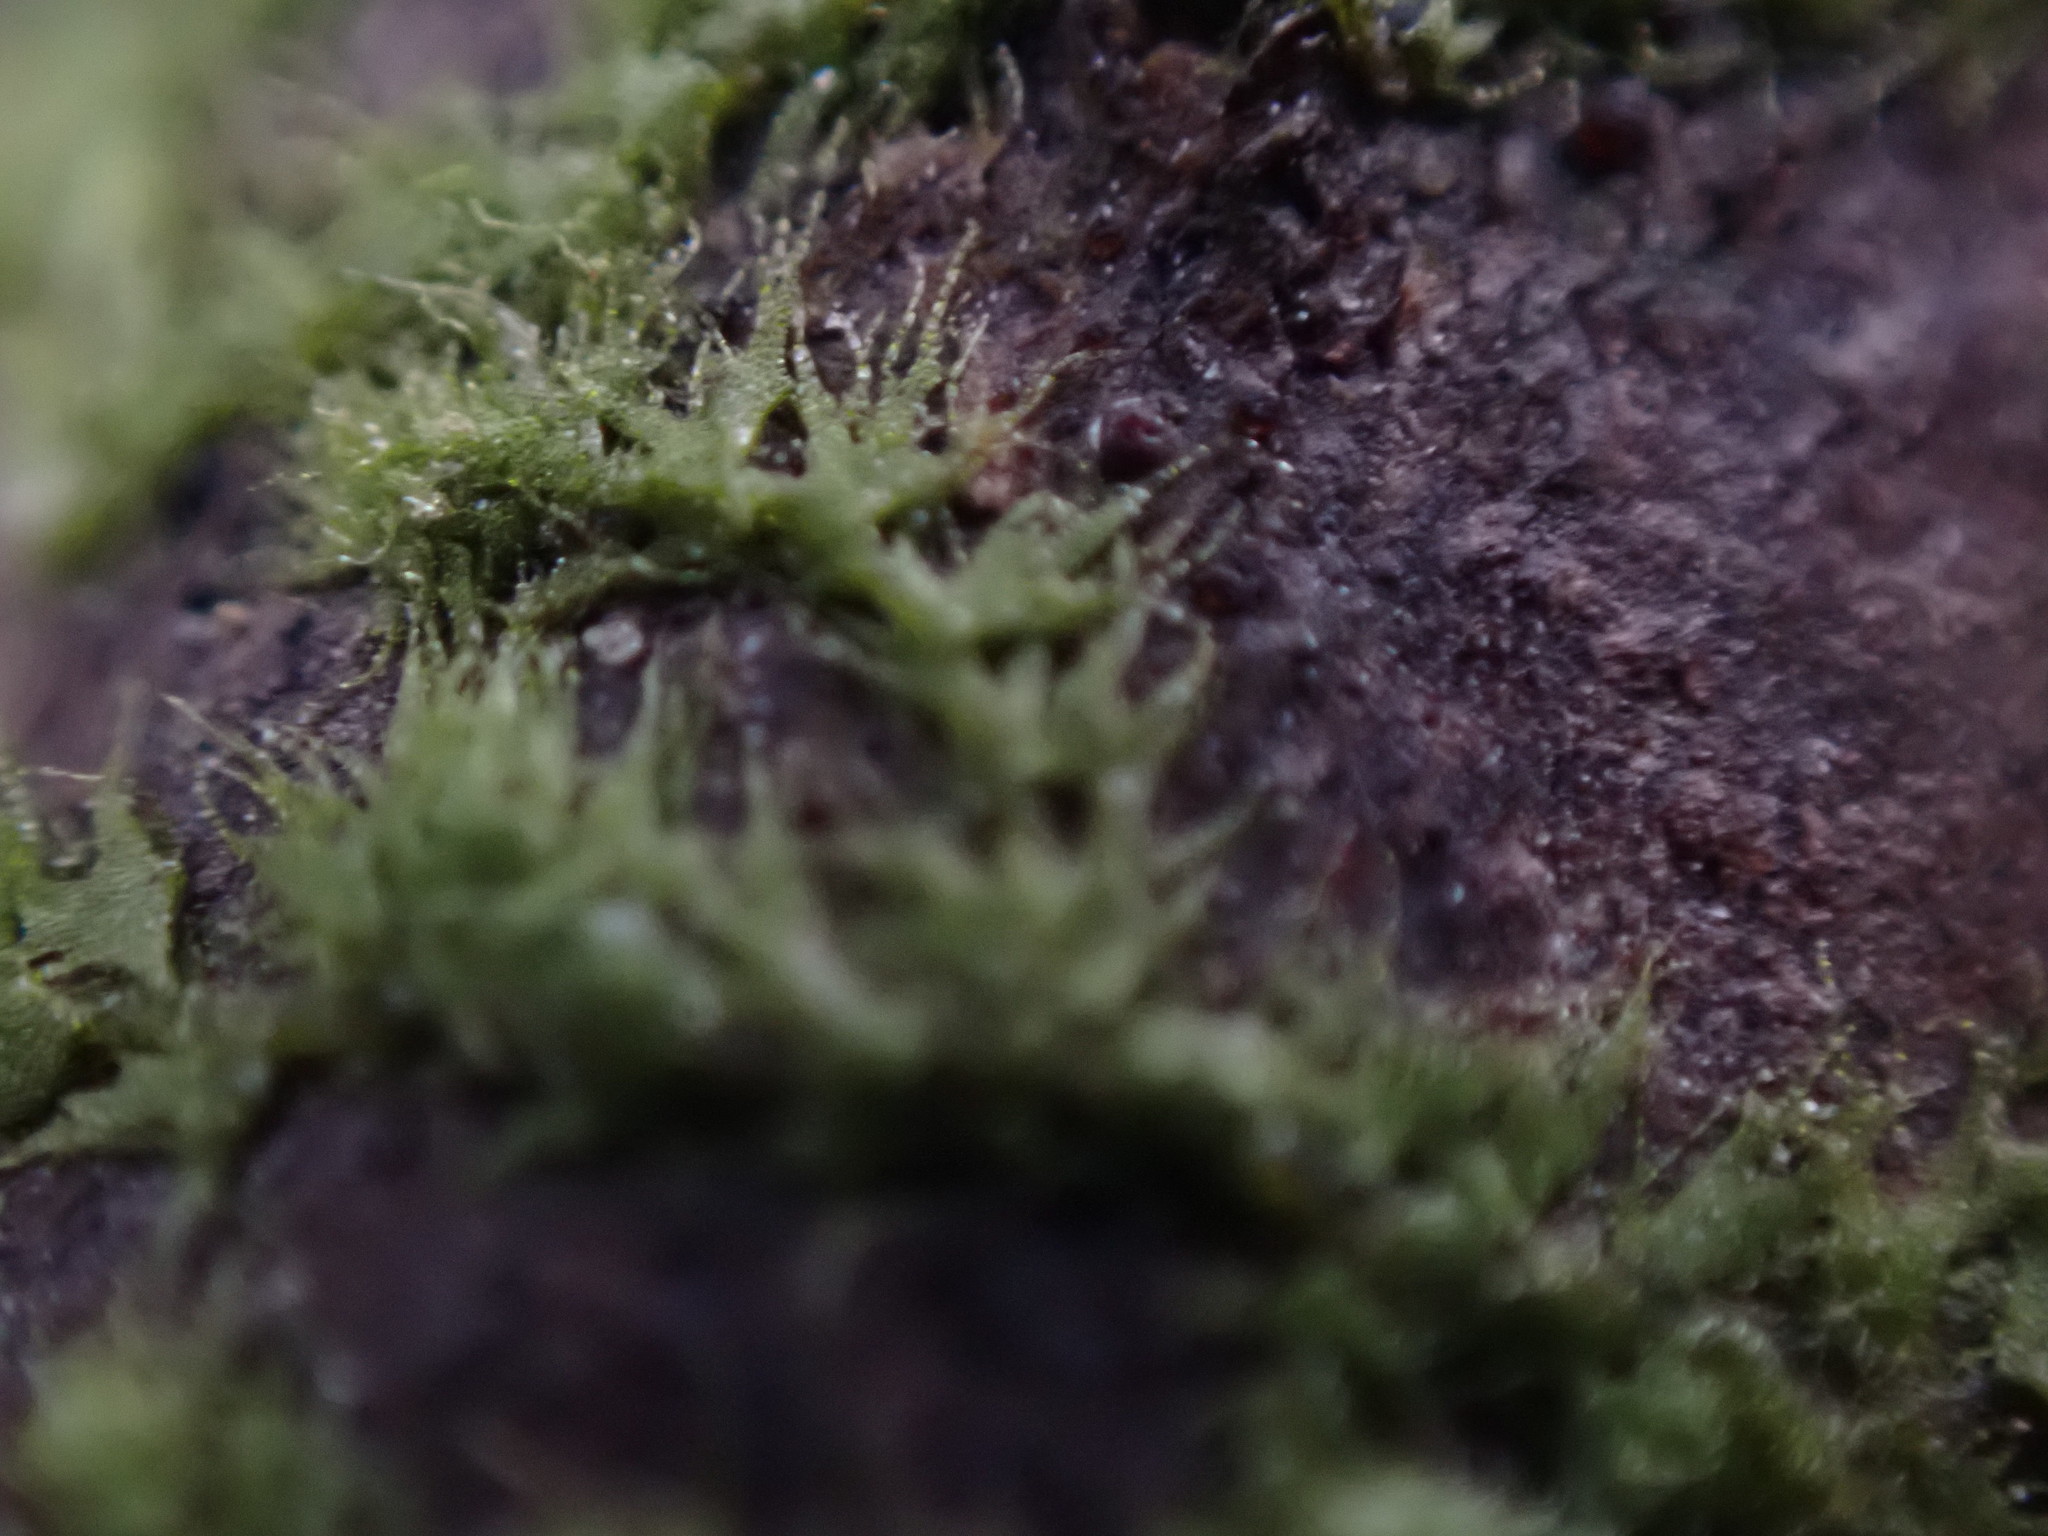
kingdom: Plantae
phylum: Marchantiophyta
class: Jungermanniopsida
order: Ptilidiales
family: Ptilidiaceae
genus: Ptilidium
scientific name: Ptilidium californicum
